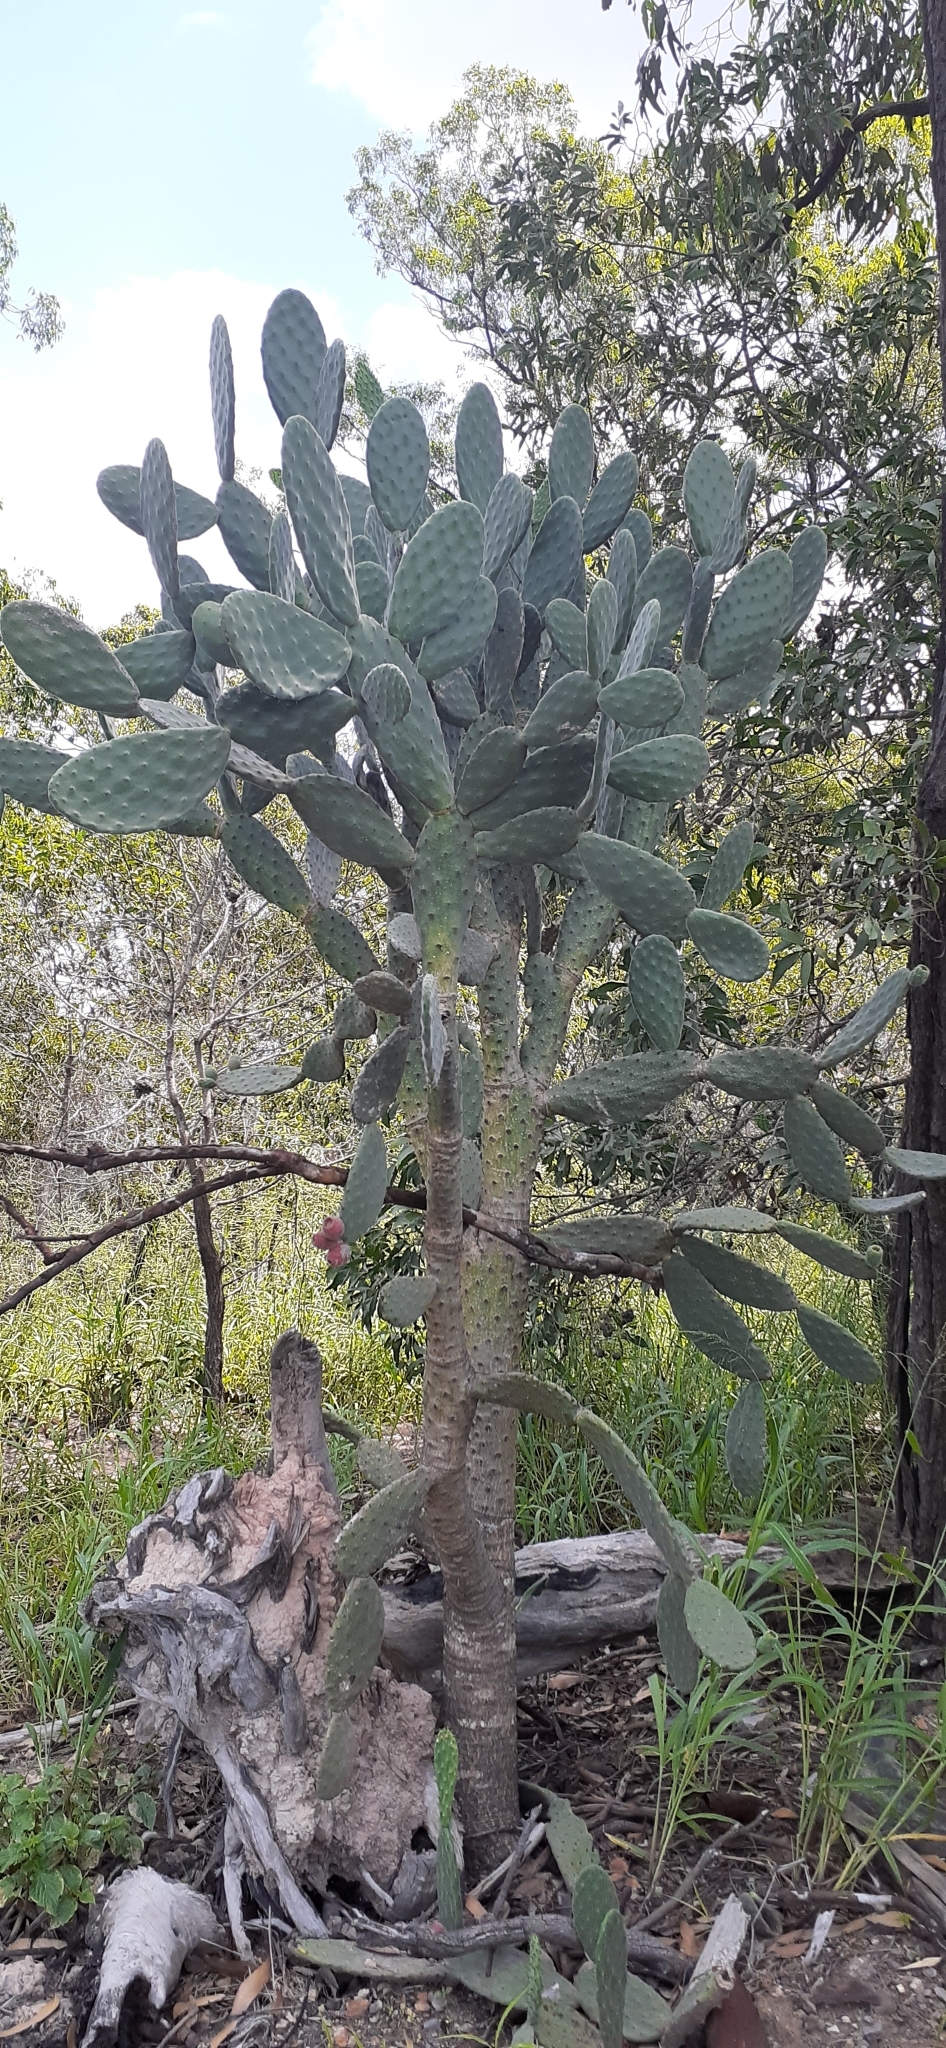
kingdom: Plantae
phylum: Tracheophyta
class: Magnoliopsida
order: Caryophyllales
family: Cactaceae
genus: Opuntia
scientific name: Opuntia tomentosa
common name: Woollyjoint pricklypear
